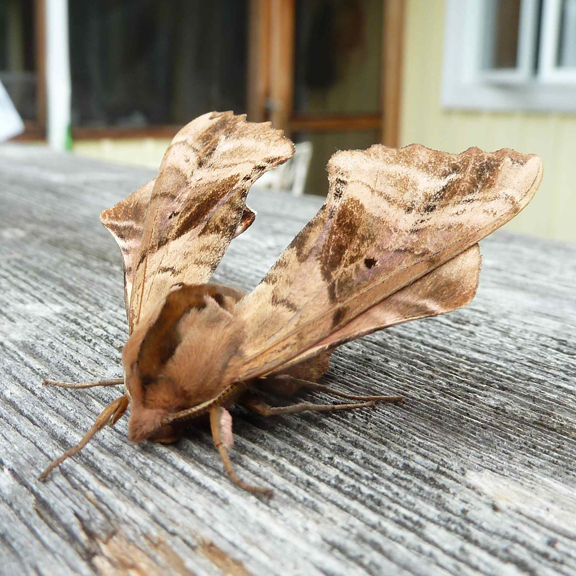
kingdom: Animalia
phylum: Arthropoda
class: Insecta
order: Lepidoptera
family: Sphingidae
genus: Paonias
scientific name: Paonias excaecata
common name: Blind-eyed sphinx
